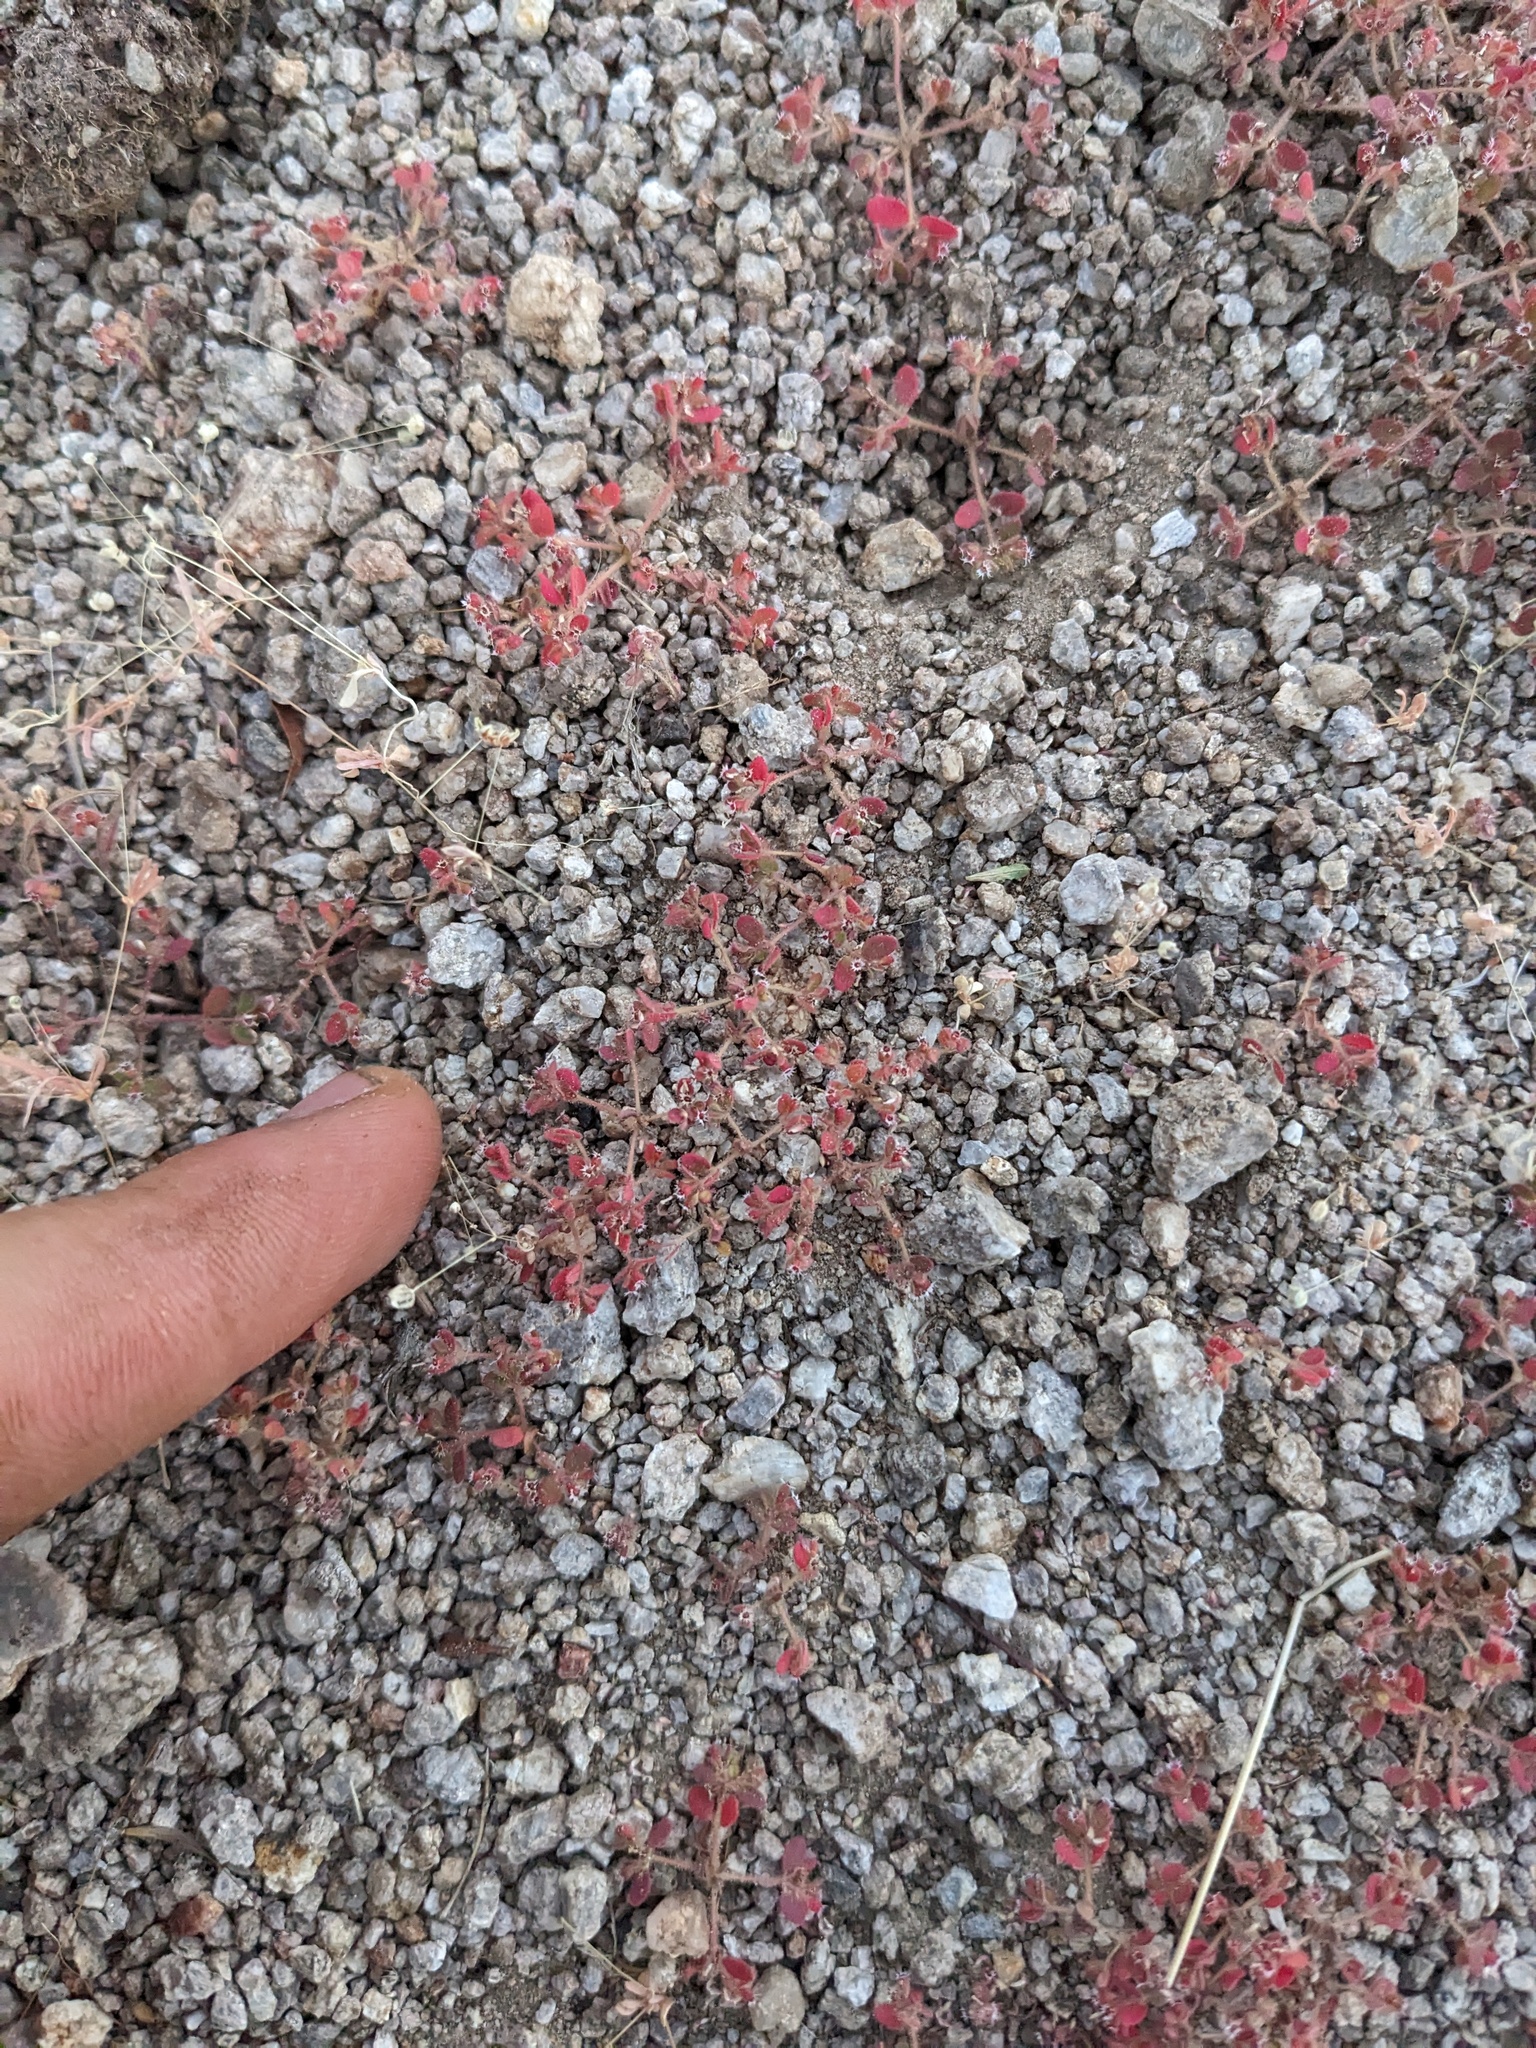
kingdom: Plantae
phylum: Tracheophyta
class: Magnoliopsida
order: Malpighiales
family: Euphorbiaceae
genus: Euphorbia
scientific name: Euphorbia setiloba
